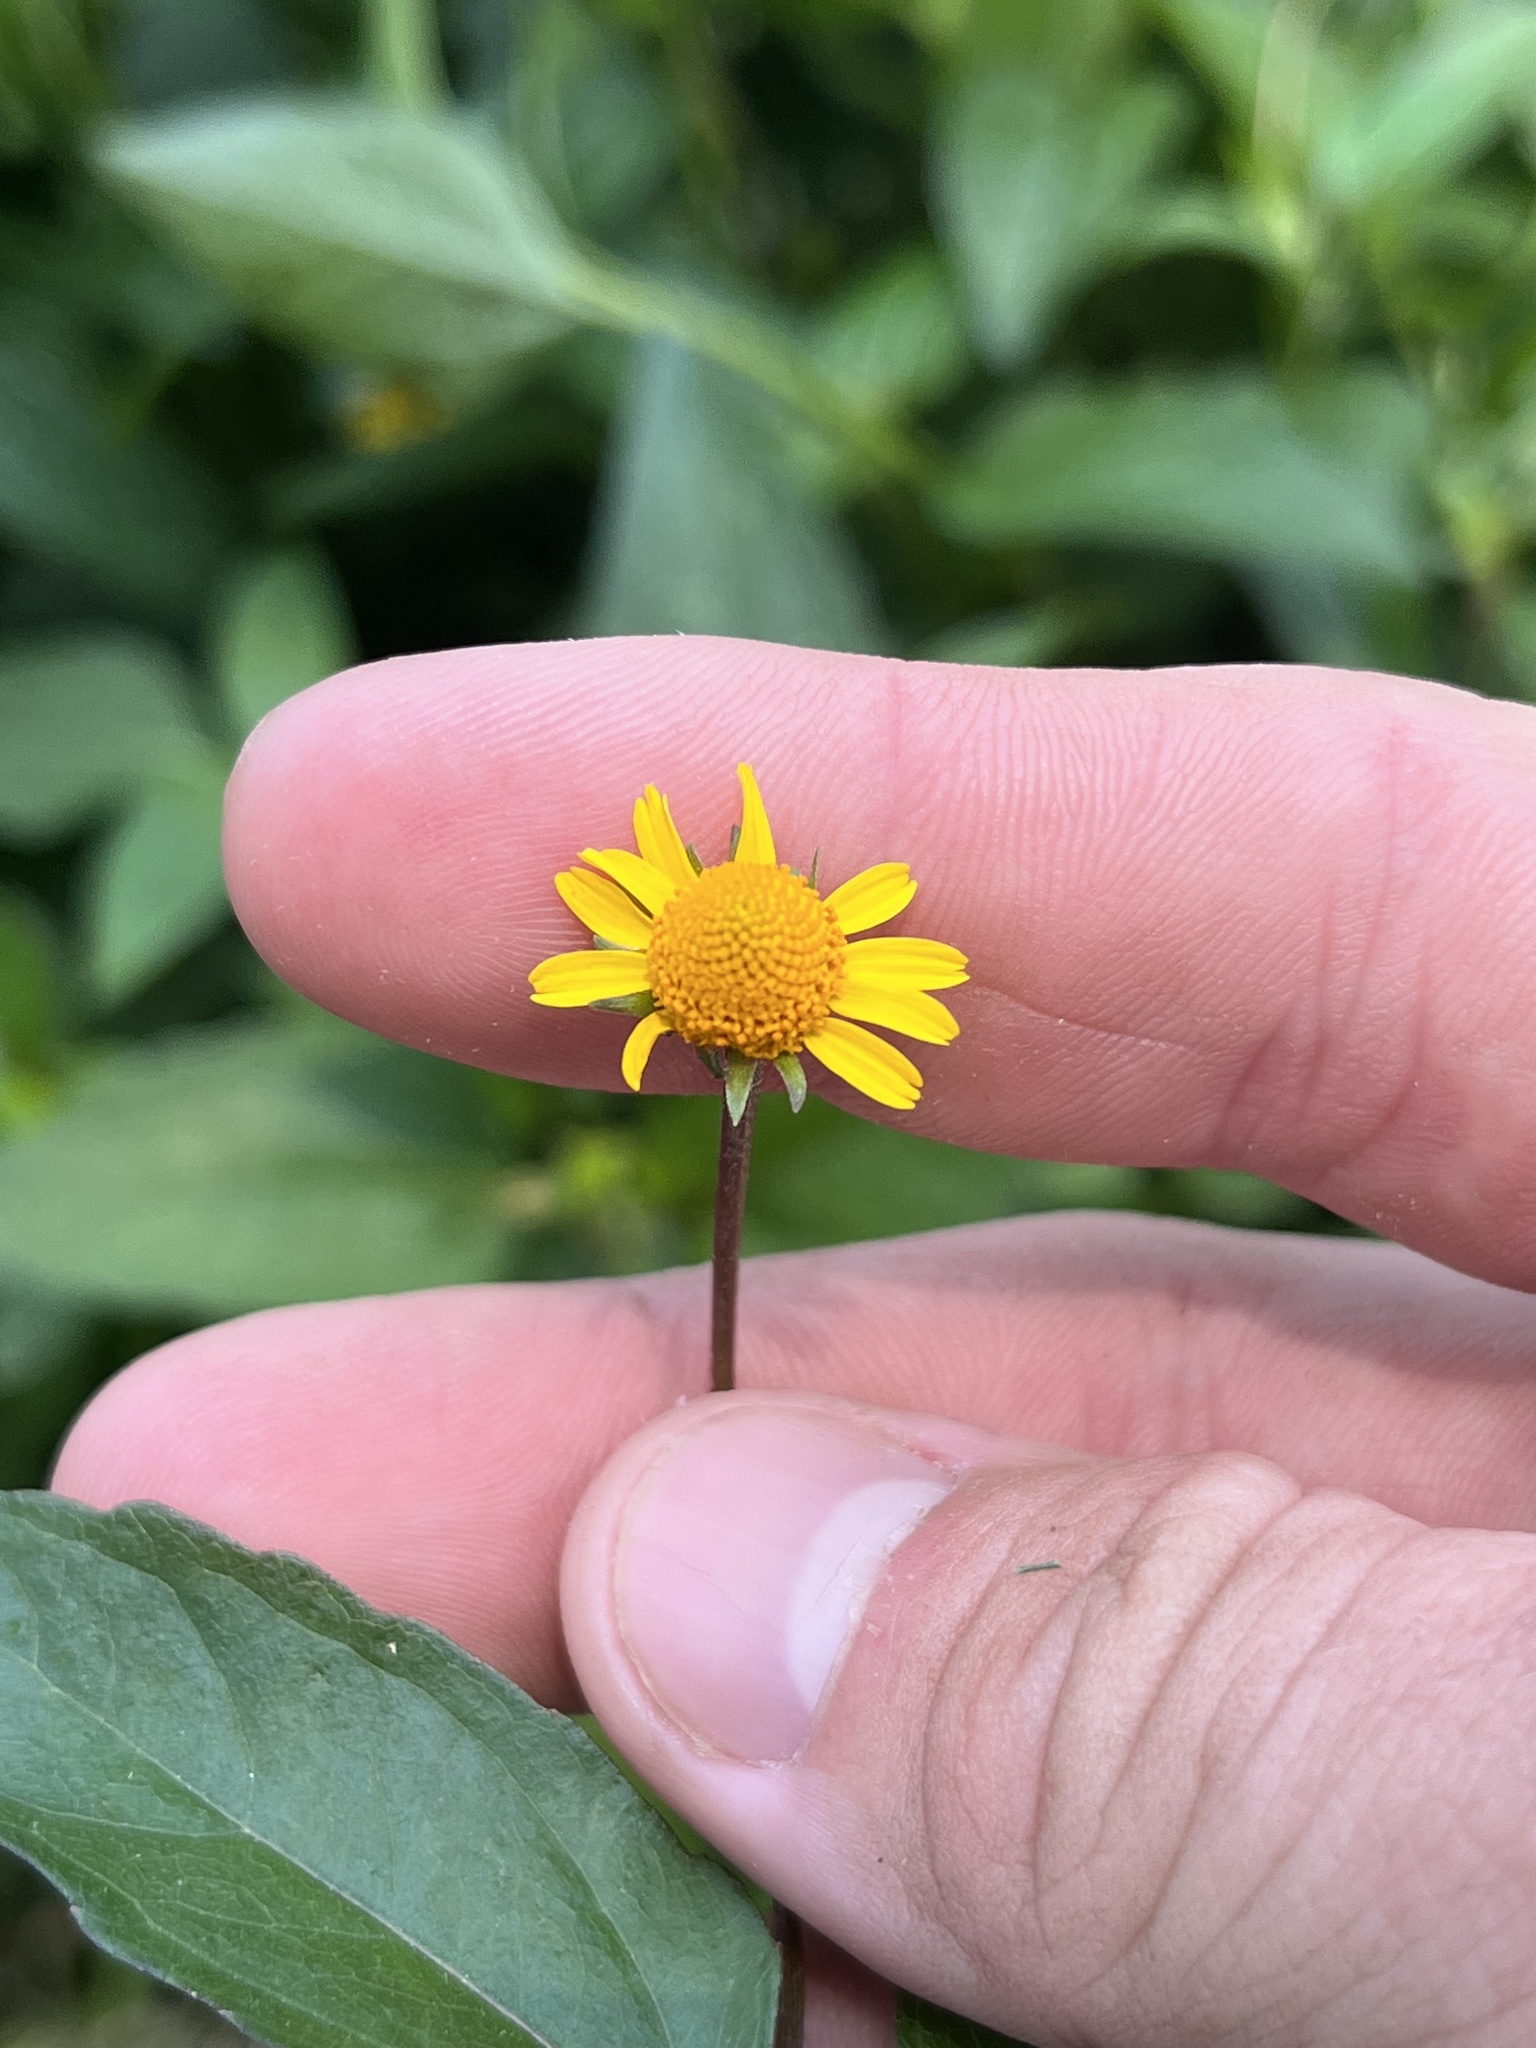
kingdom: Plantae
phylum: Tracheophyta
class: Magnoliopsida
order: Asterales
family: Asteraceae
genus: Acmella
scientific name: Acmella repens
